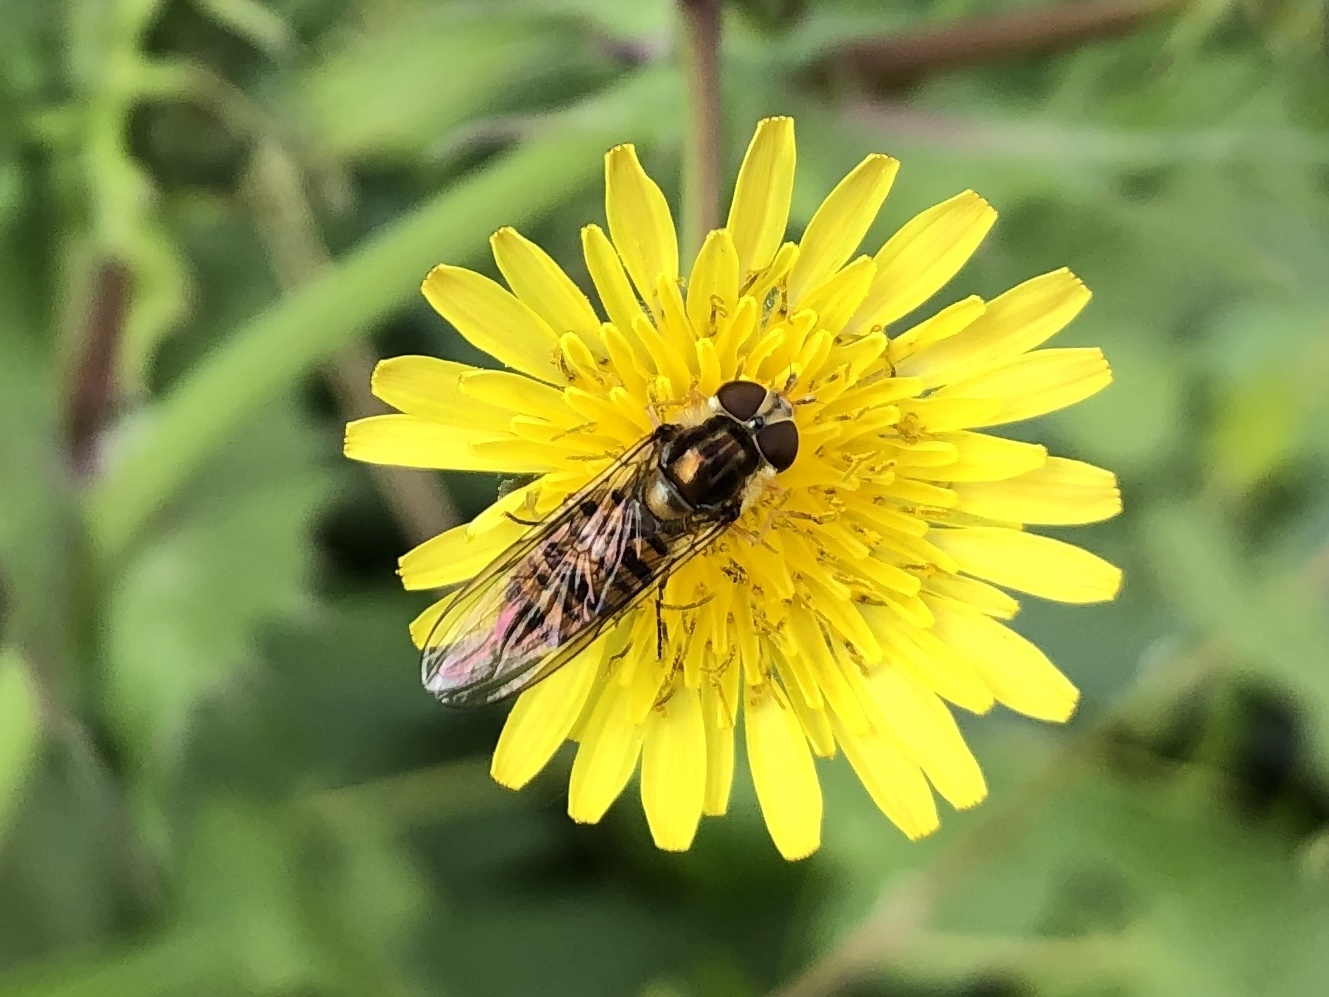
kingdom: Animalia
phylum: Arthropoda
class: Insecta
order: Diptera
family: Syrphidae
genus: Episyrphus
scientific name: Episyrphus balteatus
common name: Marmalade hoverfly
